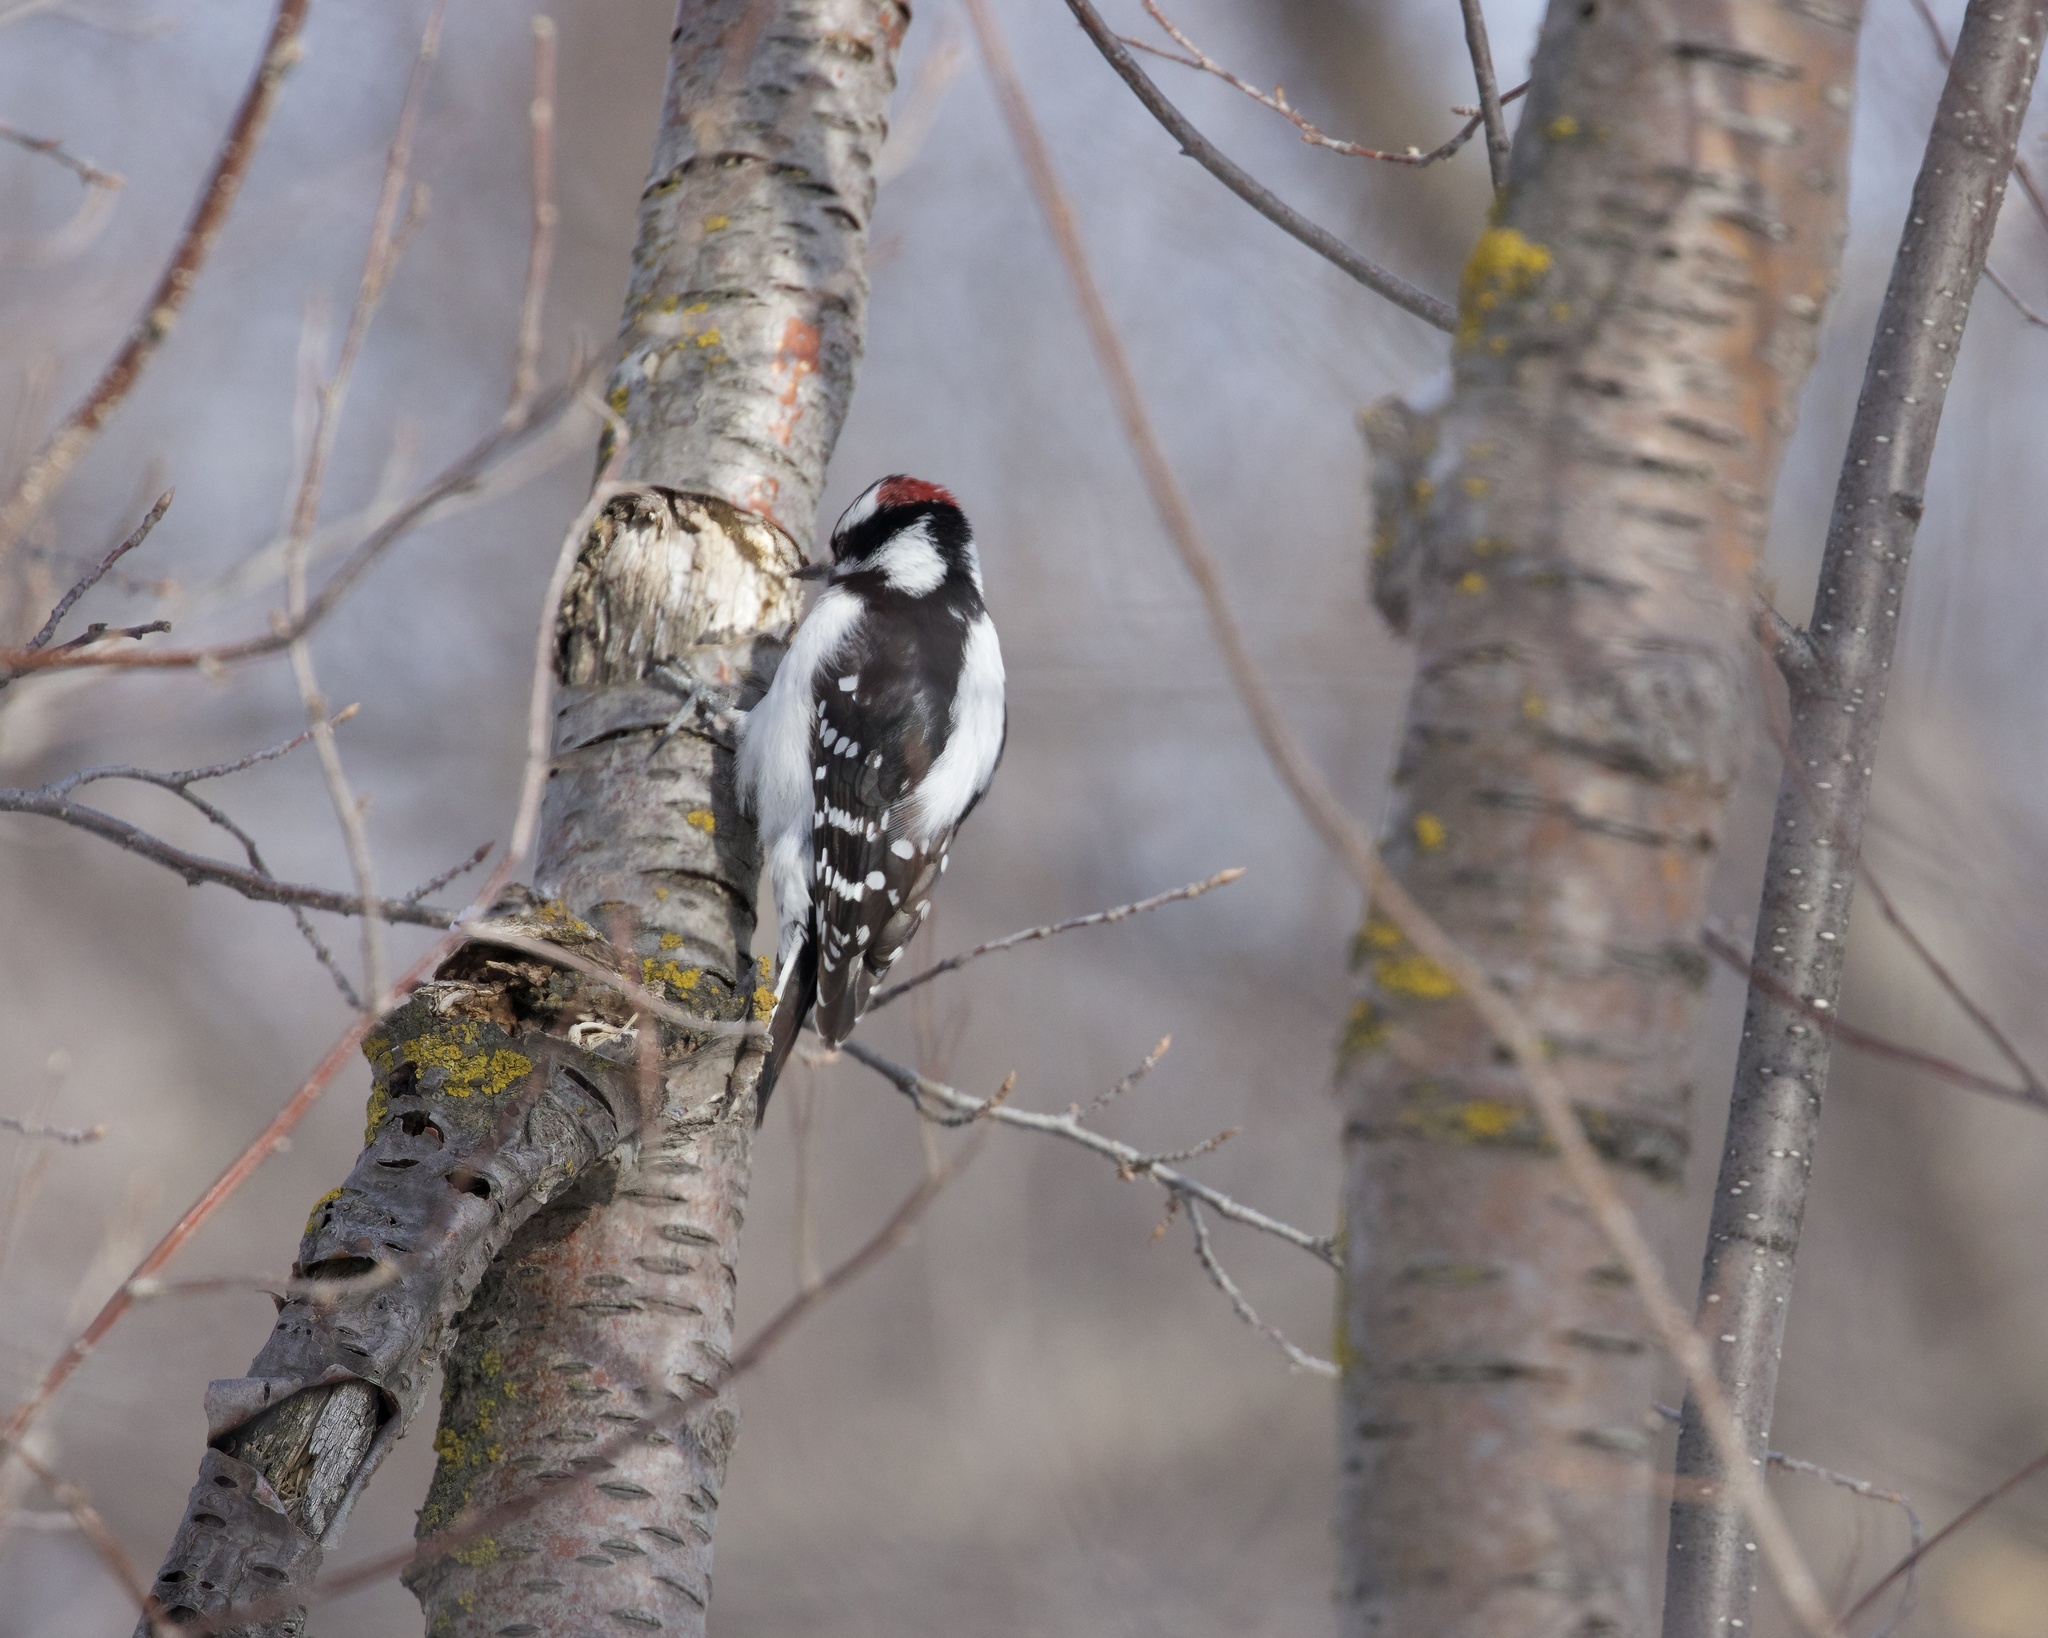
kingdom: Animalia
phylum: Chordata
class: Aves
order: Piciformes
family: Picidae
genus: Dryobates
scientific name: Dryobates pubescens
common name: Downy woodpecker
